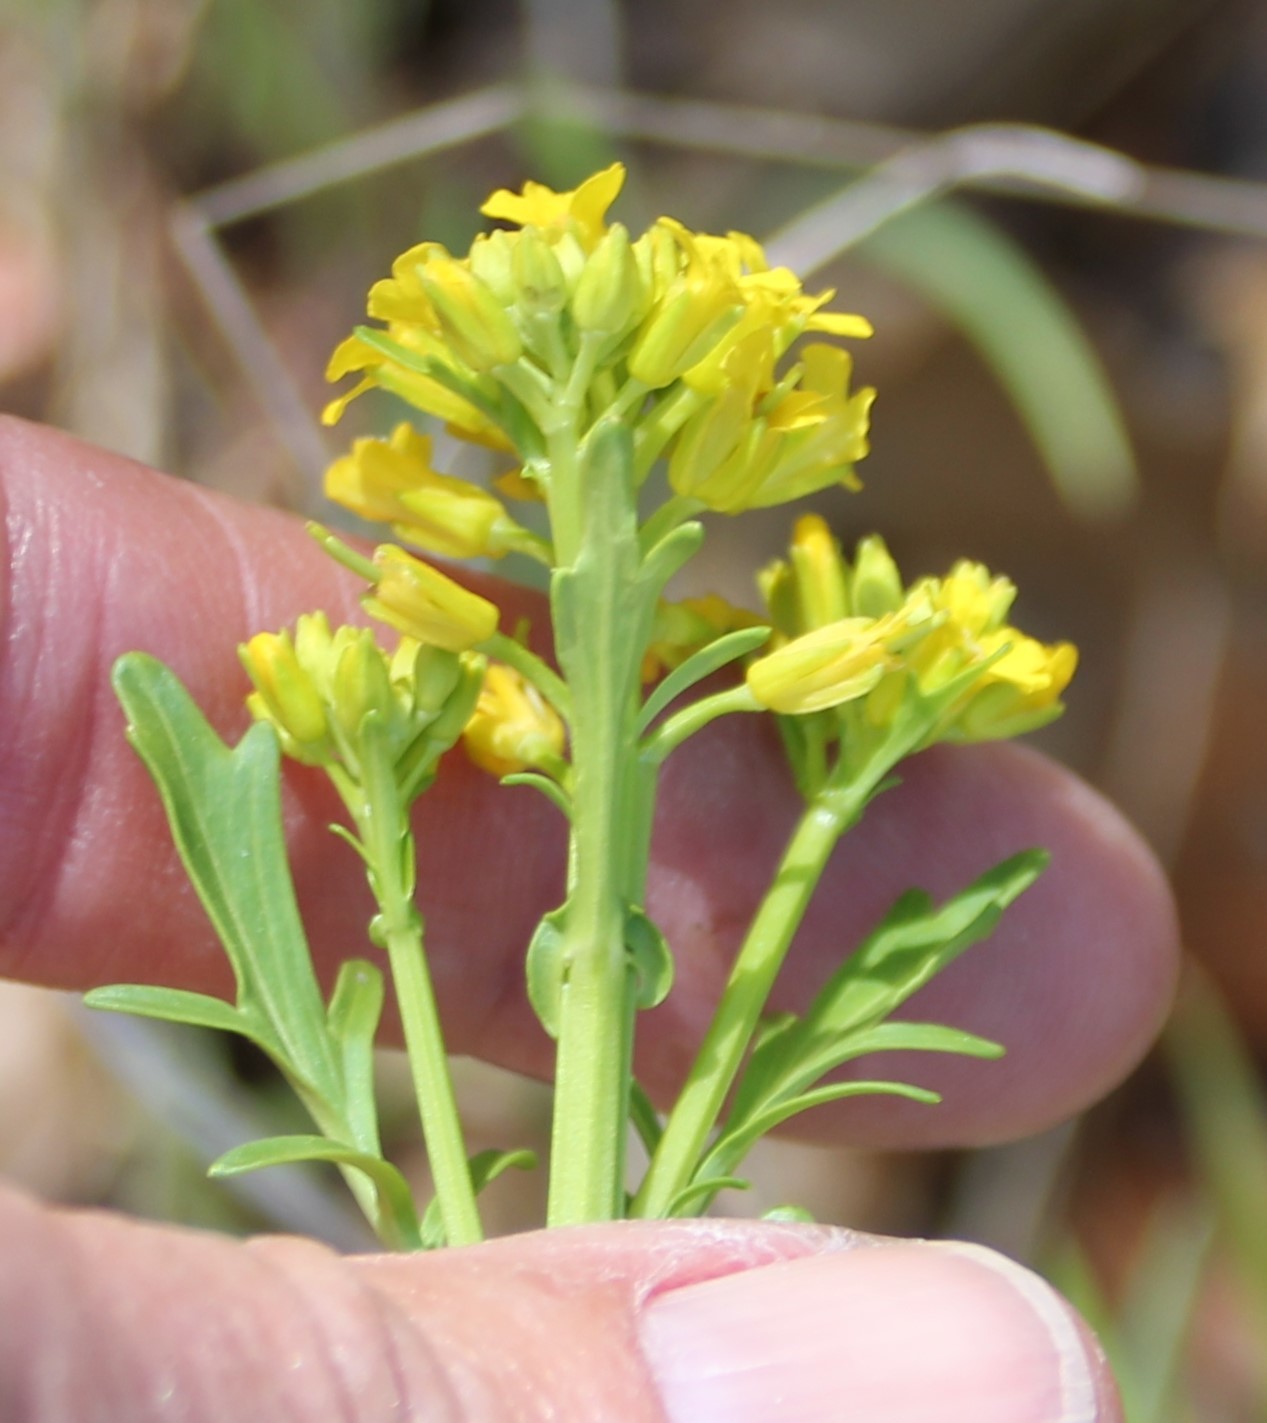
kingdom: Plantae
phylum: Tracheophyta
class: Magnoliopsida
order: Brassicales
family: Brassicaceae
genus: Barbarea
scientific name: Barbarea orthoceras
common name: American wintercress
